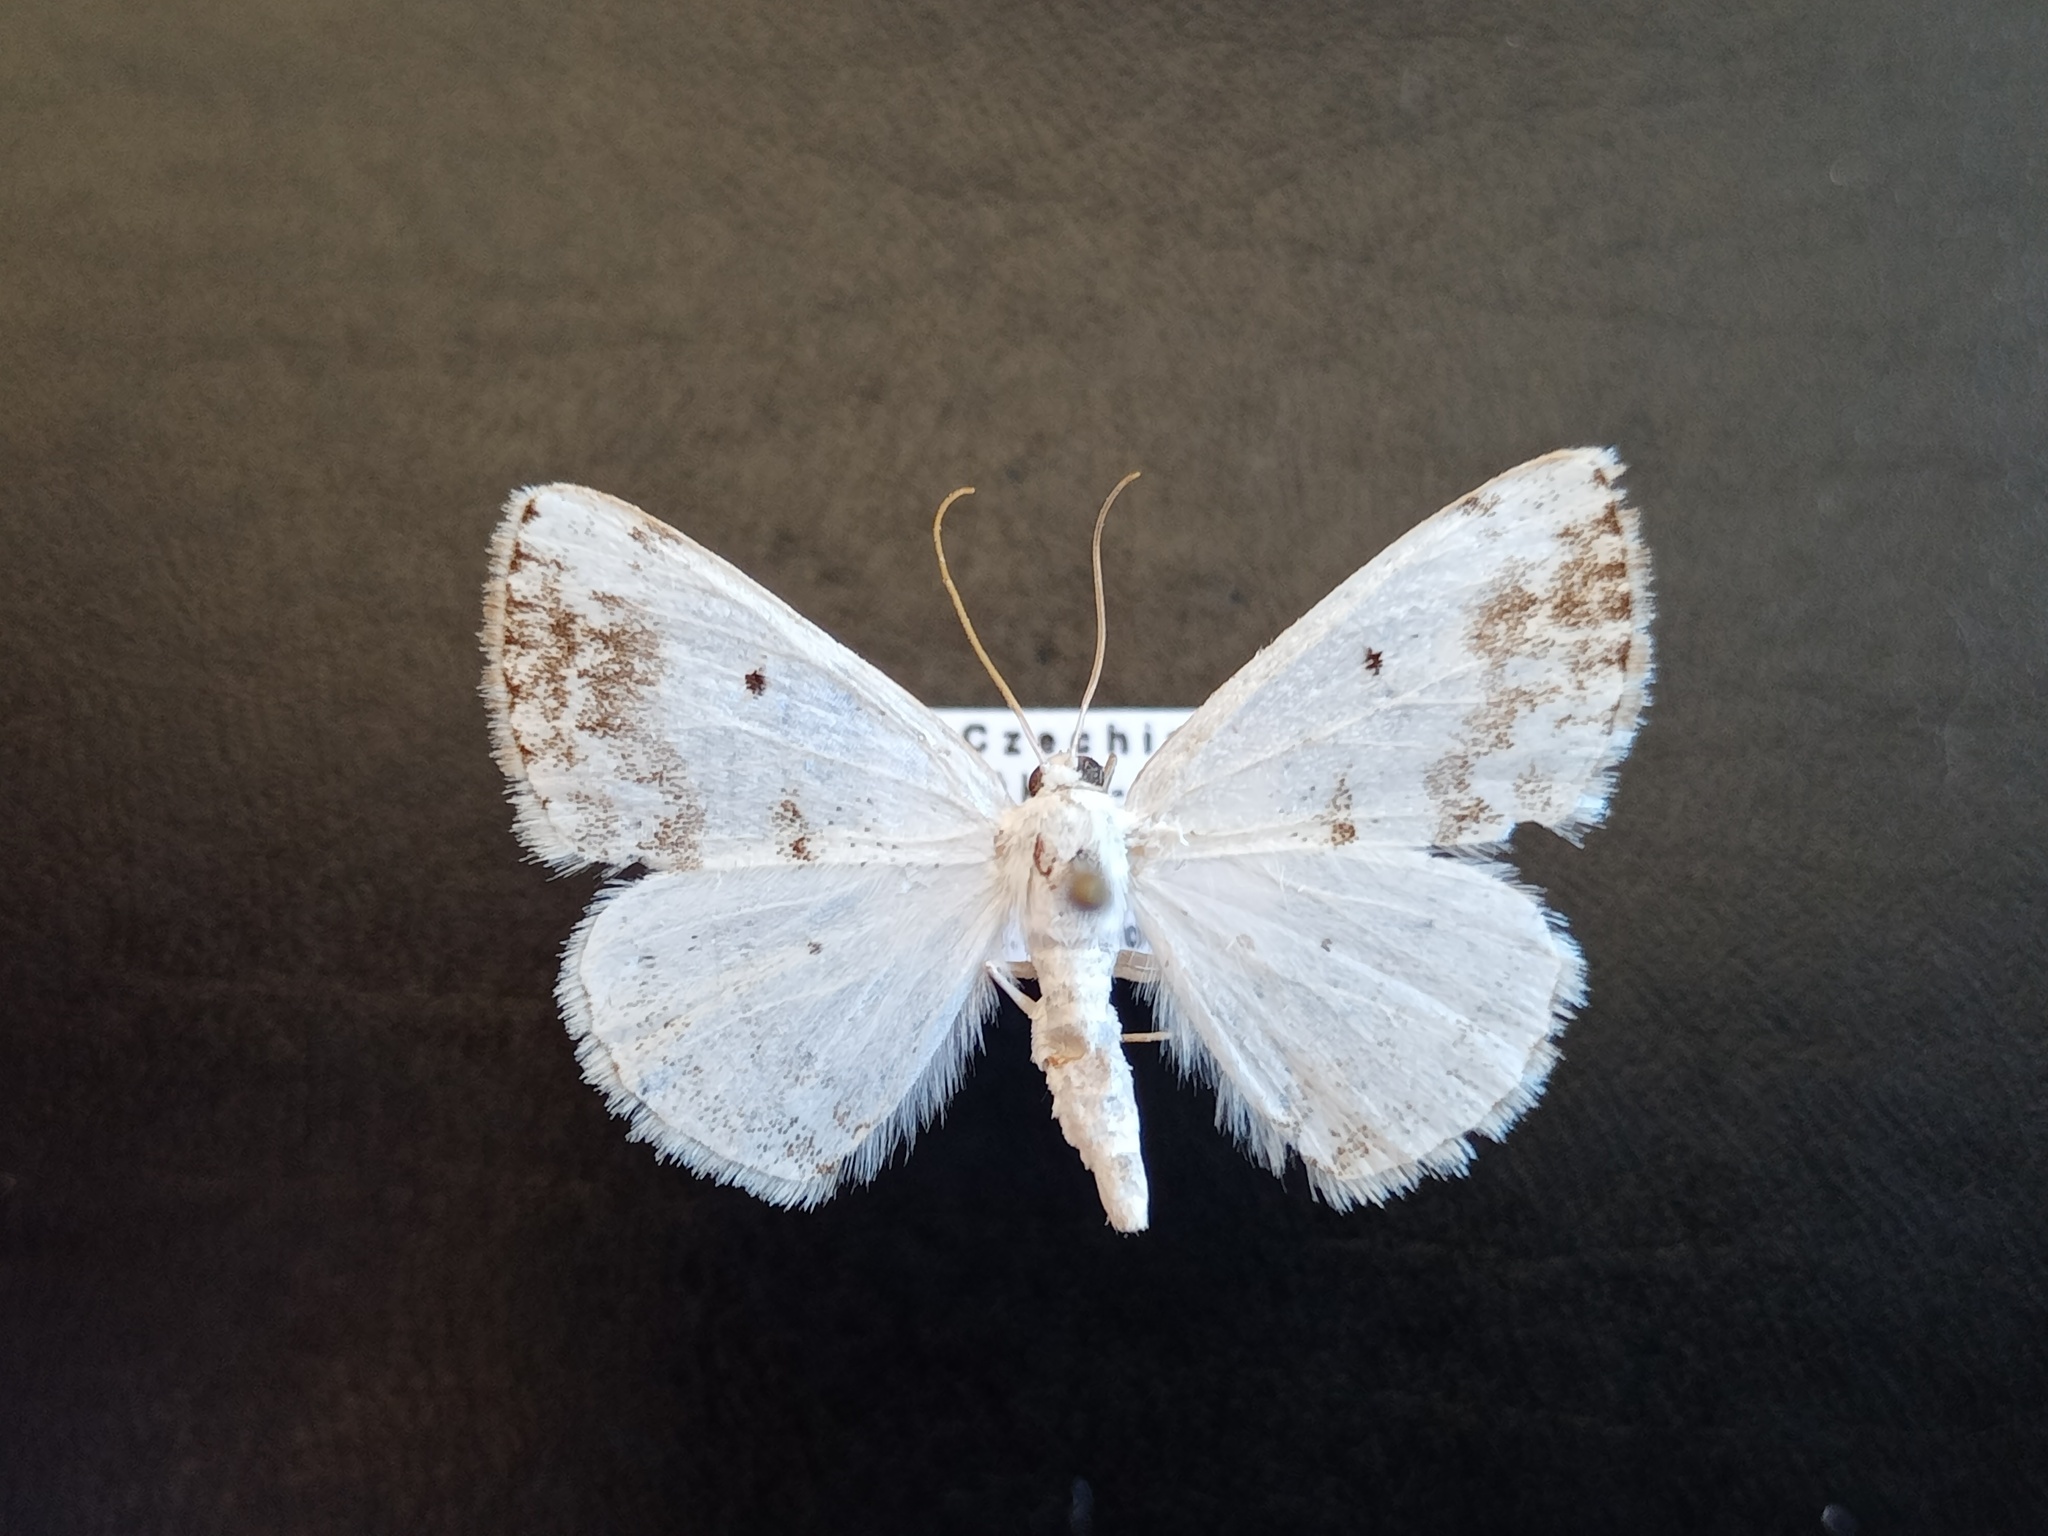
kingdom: Animalia
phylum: Arthropoda
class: Insecta
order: Lepidoptera
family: Geometridae
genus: Lomographa
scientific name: Lomographa temerata
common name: Clouded silver
